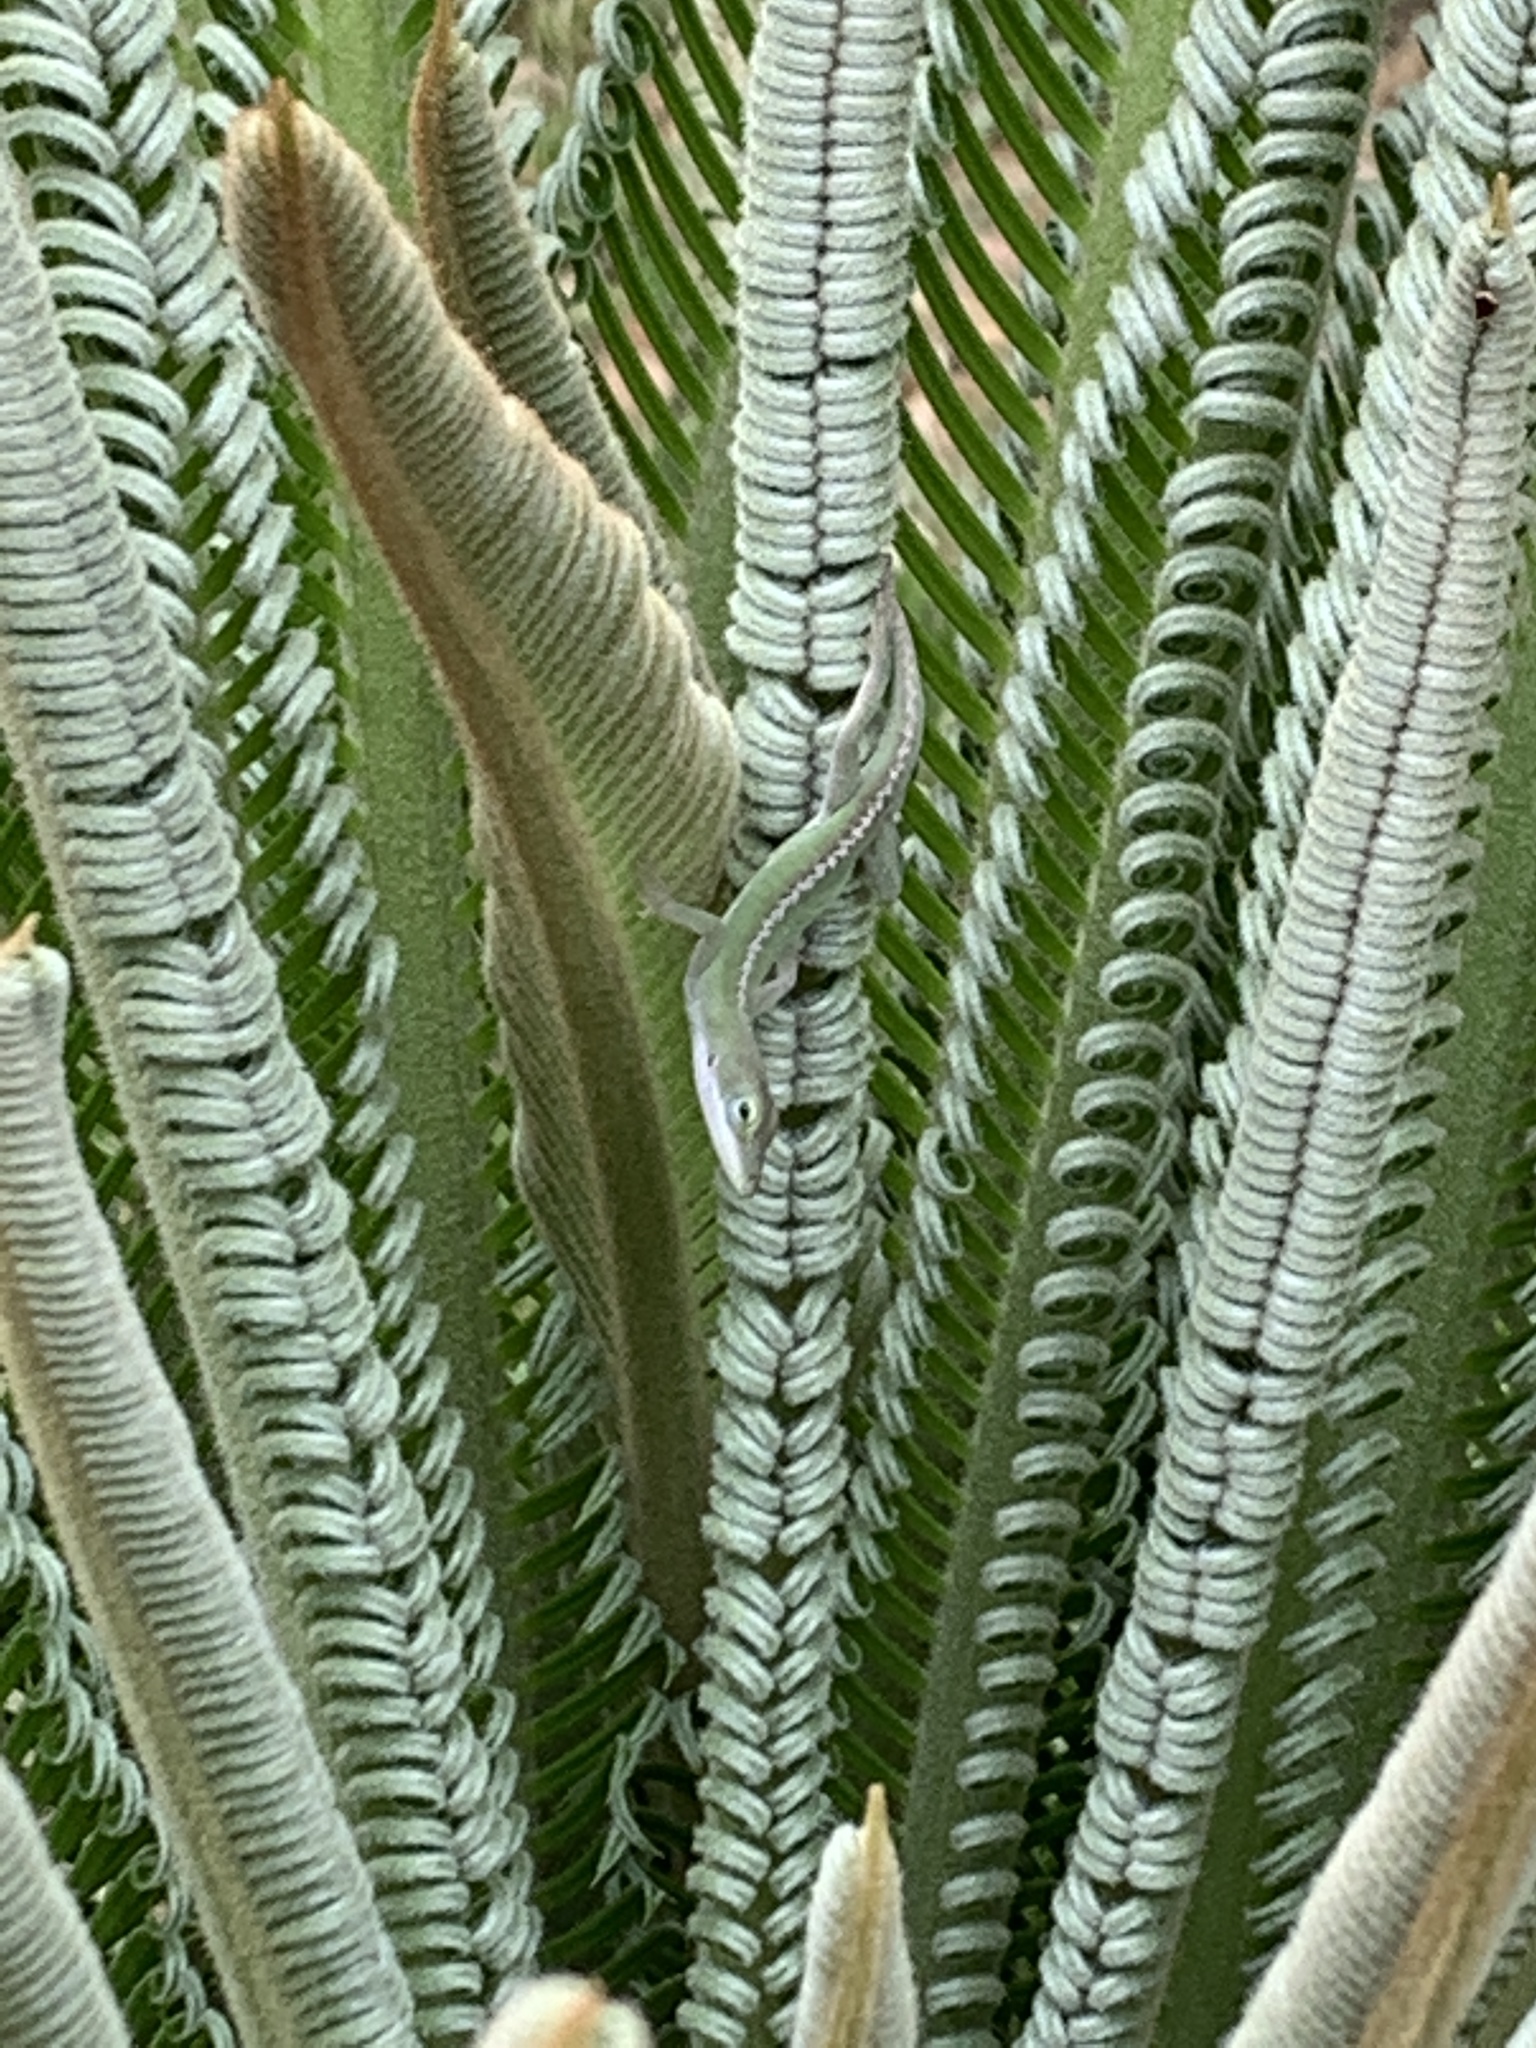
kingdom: Animalia
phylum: Chordata
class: Squamata
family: Dactyloidae
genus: Anolis
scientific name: Anolis carolinensis
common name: Green anole
